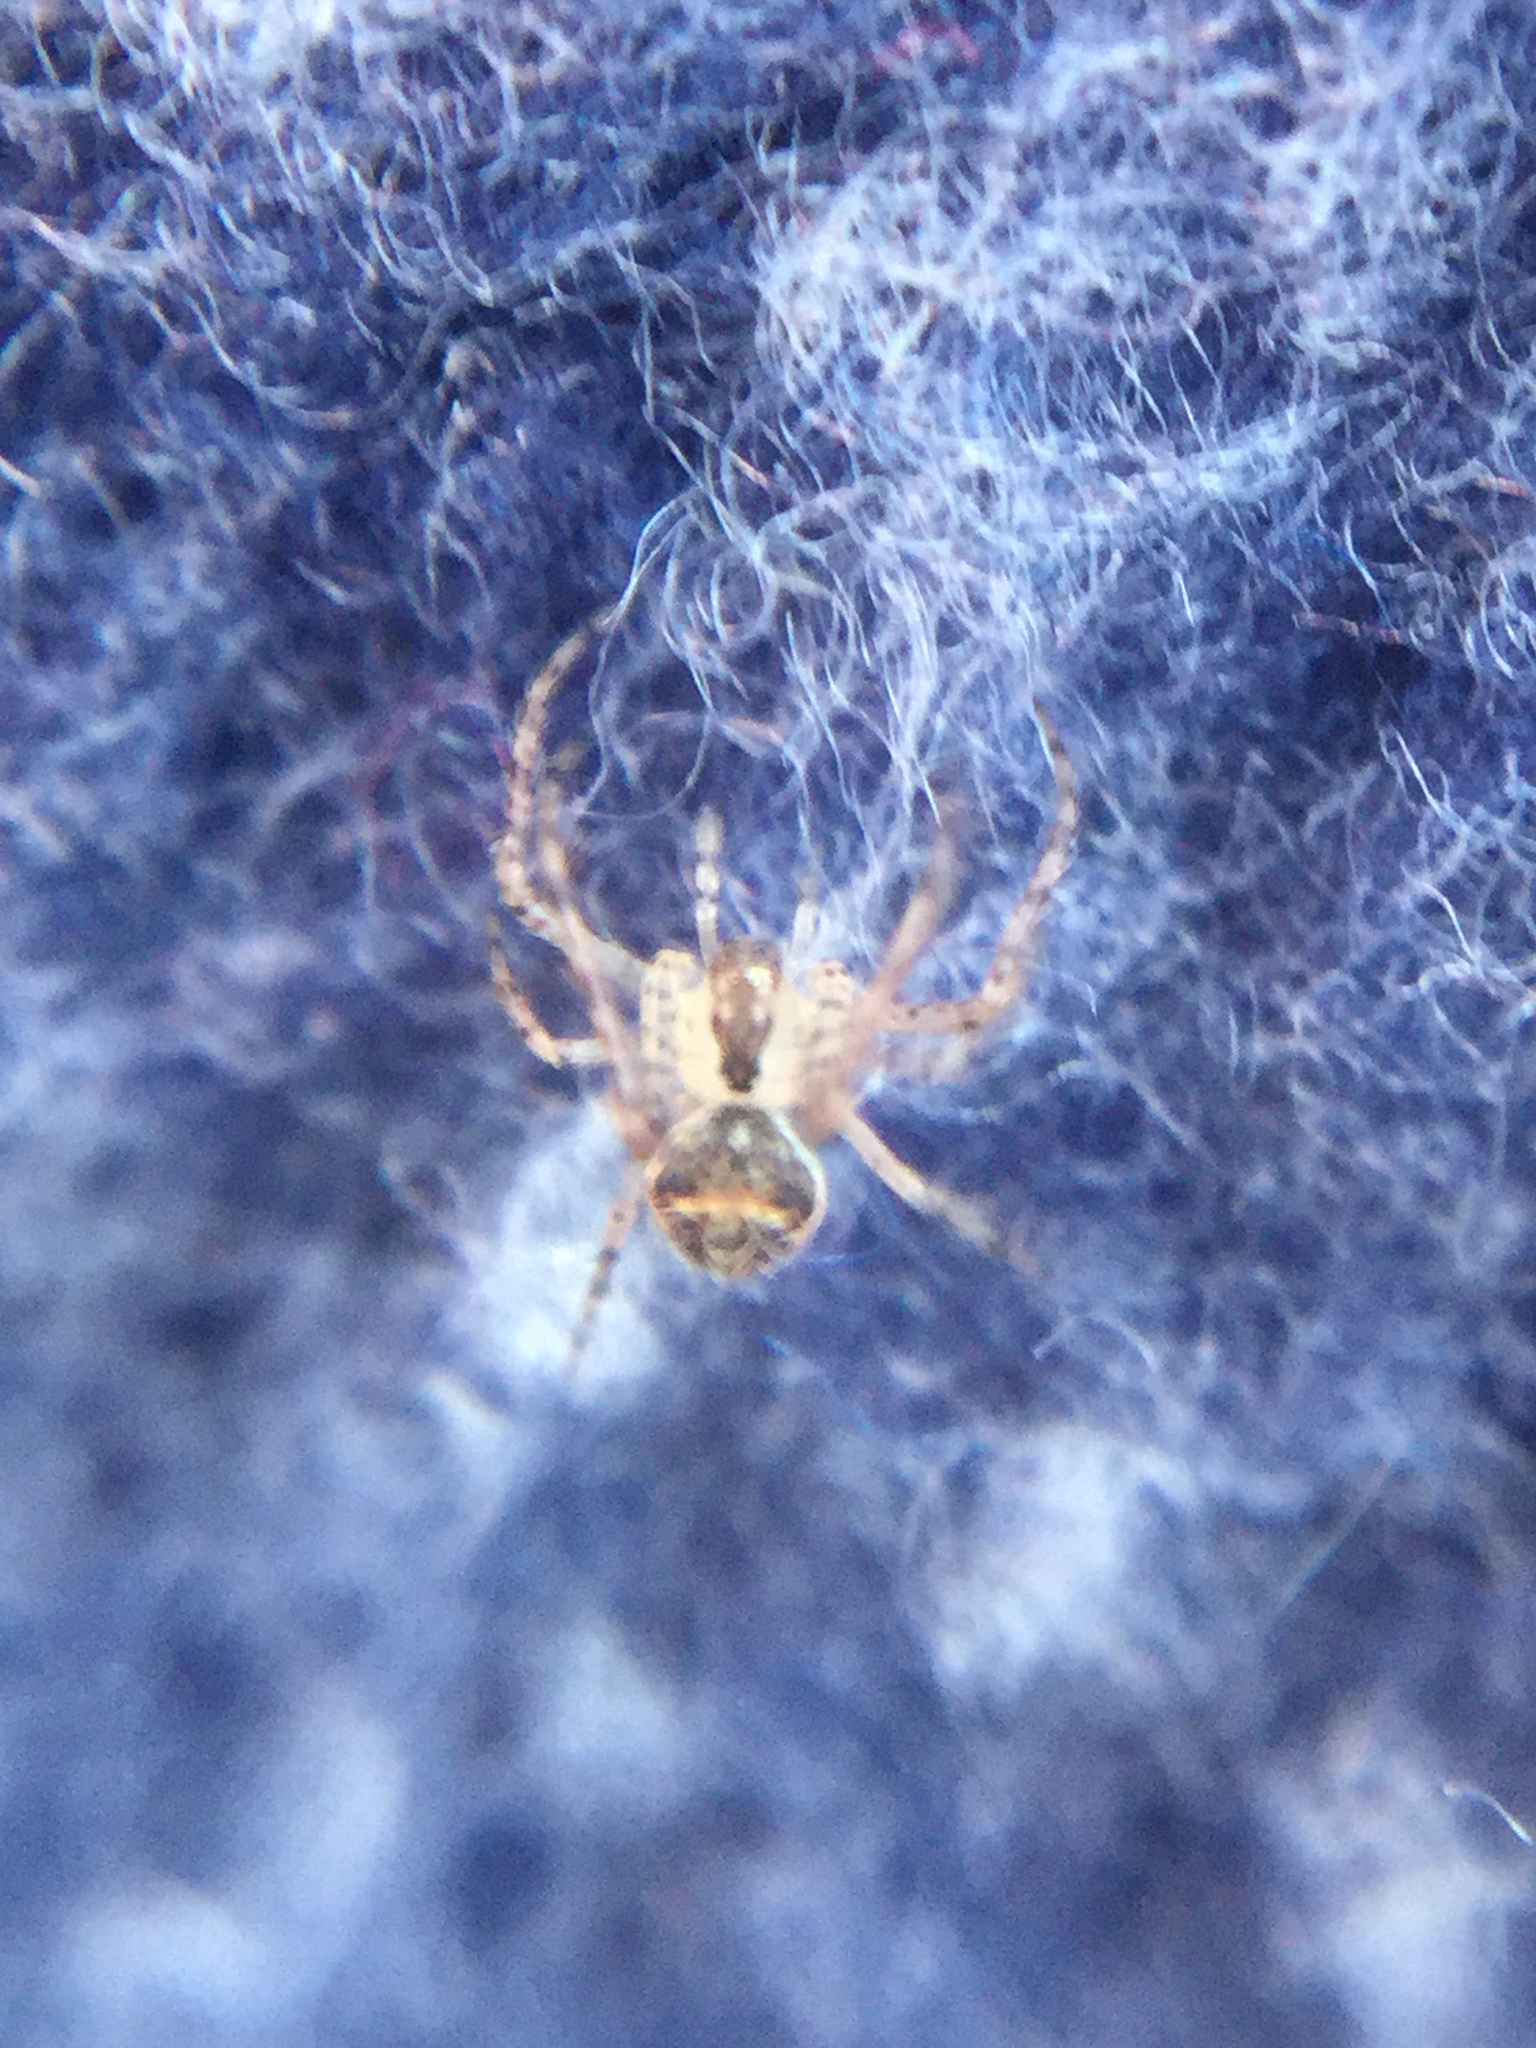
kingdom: Animalia
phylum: Arthropoda
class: Arachnida
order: Araneae
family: Mimetidae
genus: Mimetus
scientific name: Mimetus puritanus
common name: Common pirate spider
